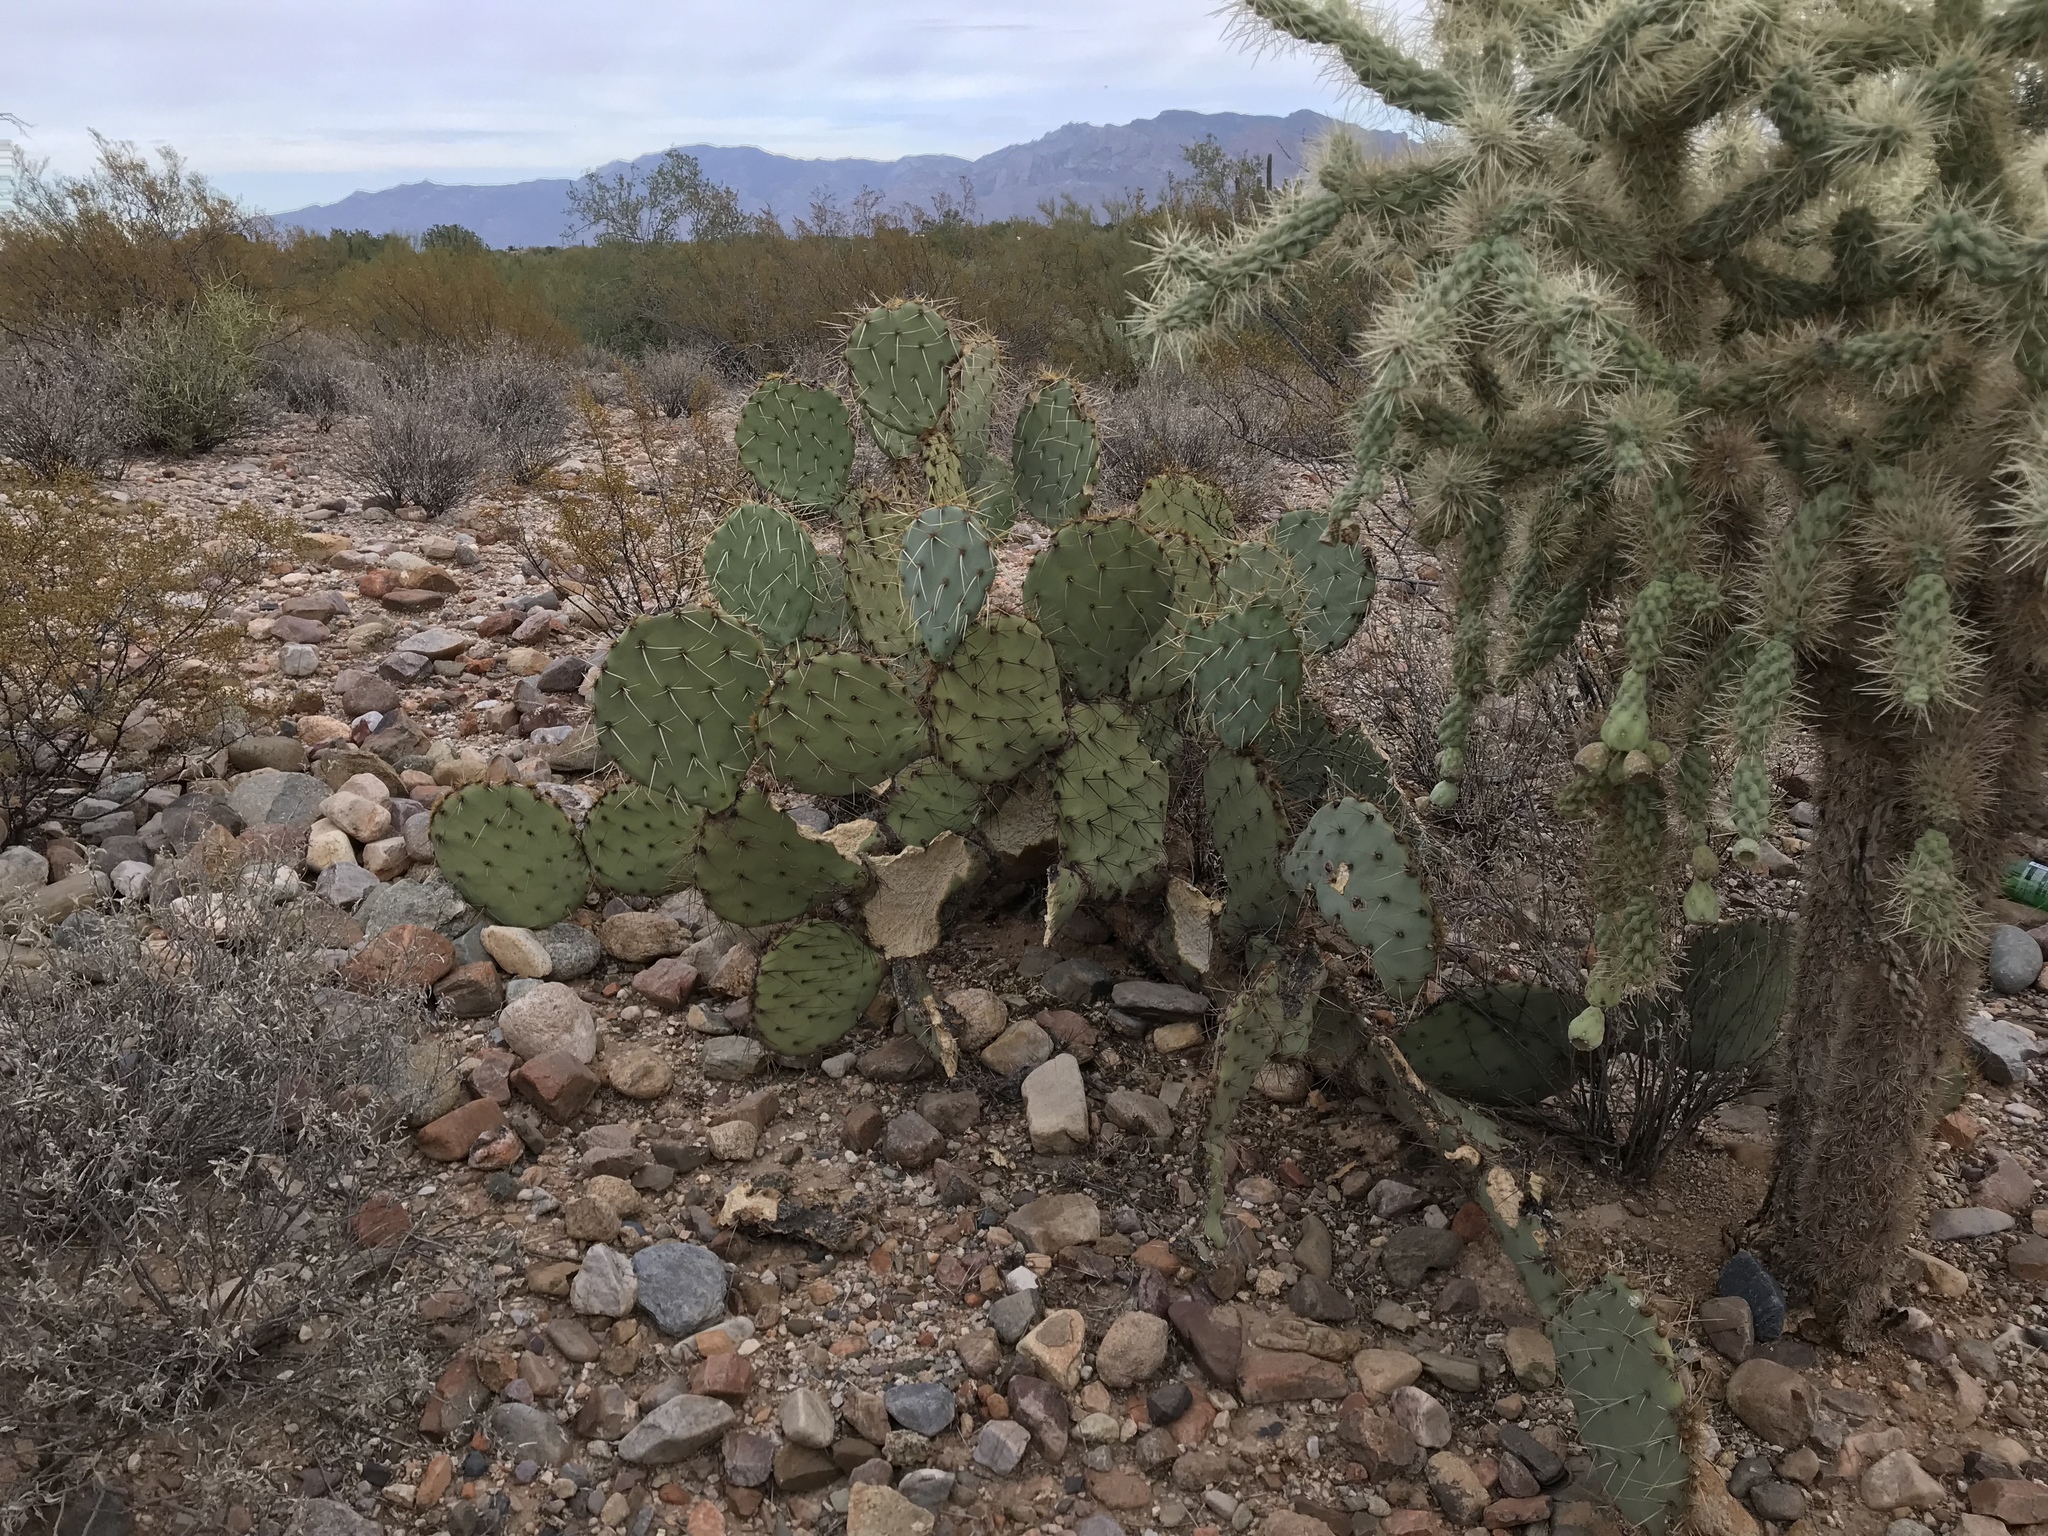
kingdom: Plantae
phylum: Tracheophyta
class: Magnoliopsida
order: Caryophyllales
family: Cactaceae
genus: Opuntia
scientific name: Opuntia phaeacantha
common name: New mexico prickly-pear
